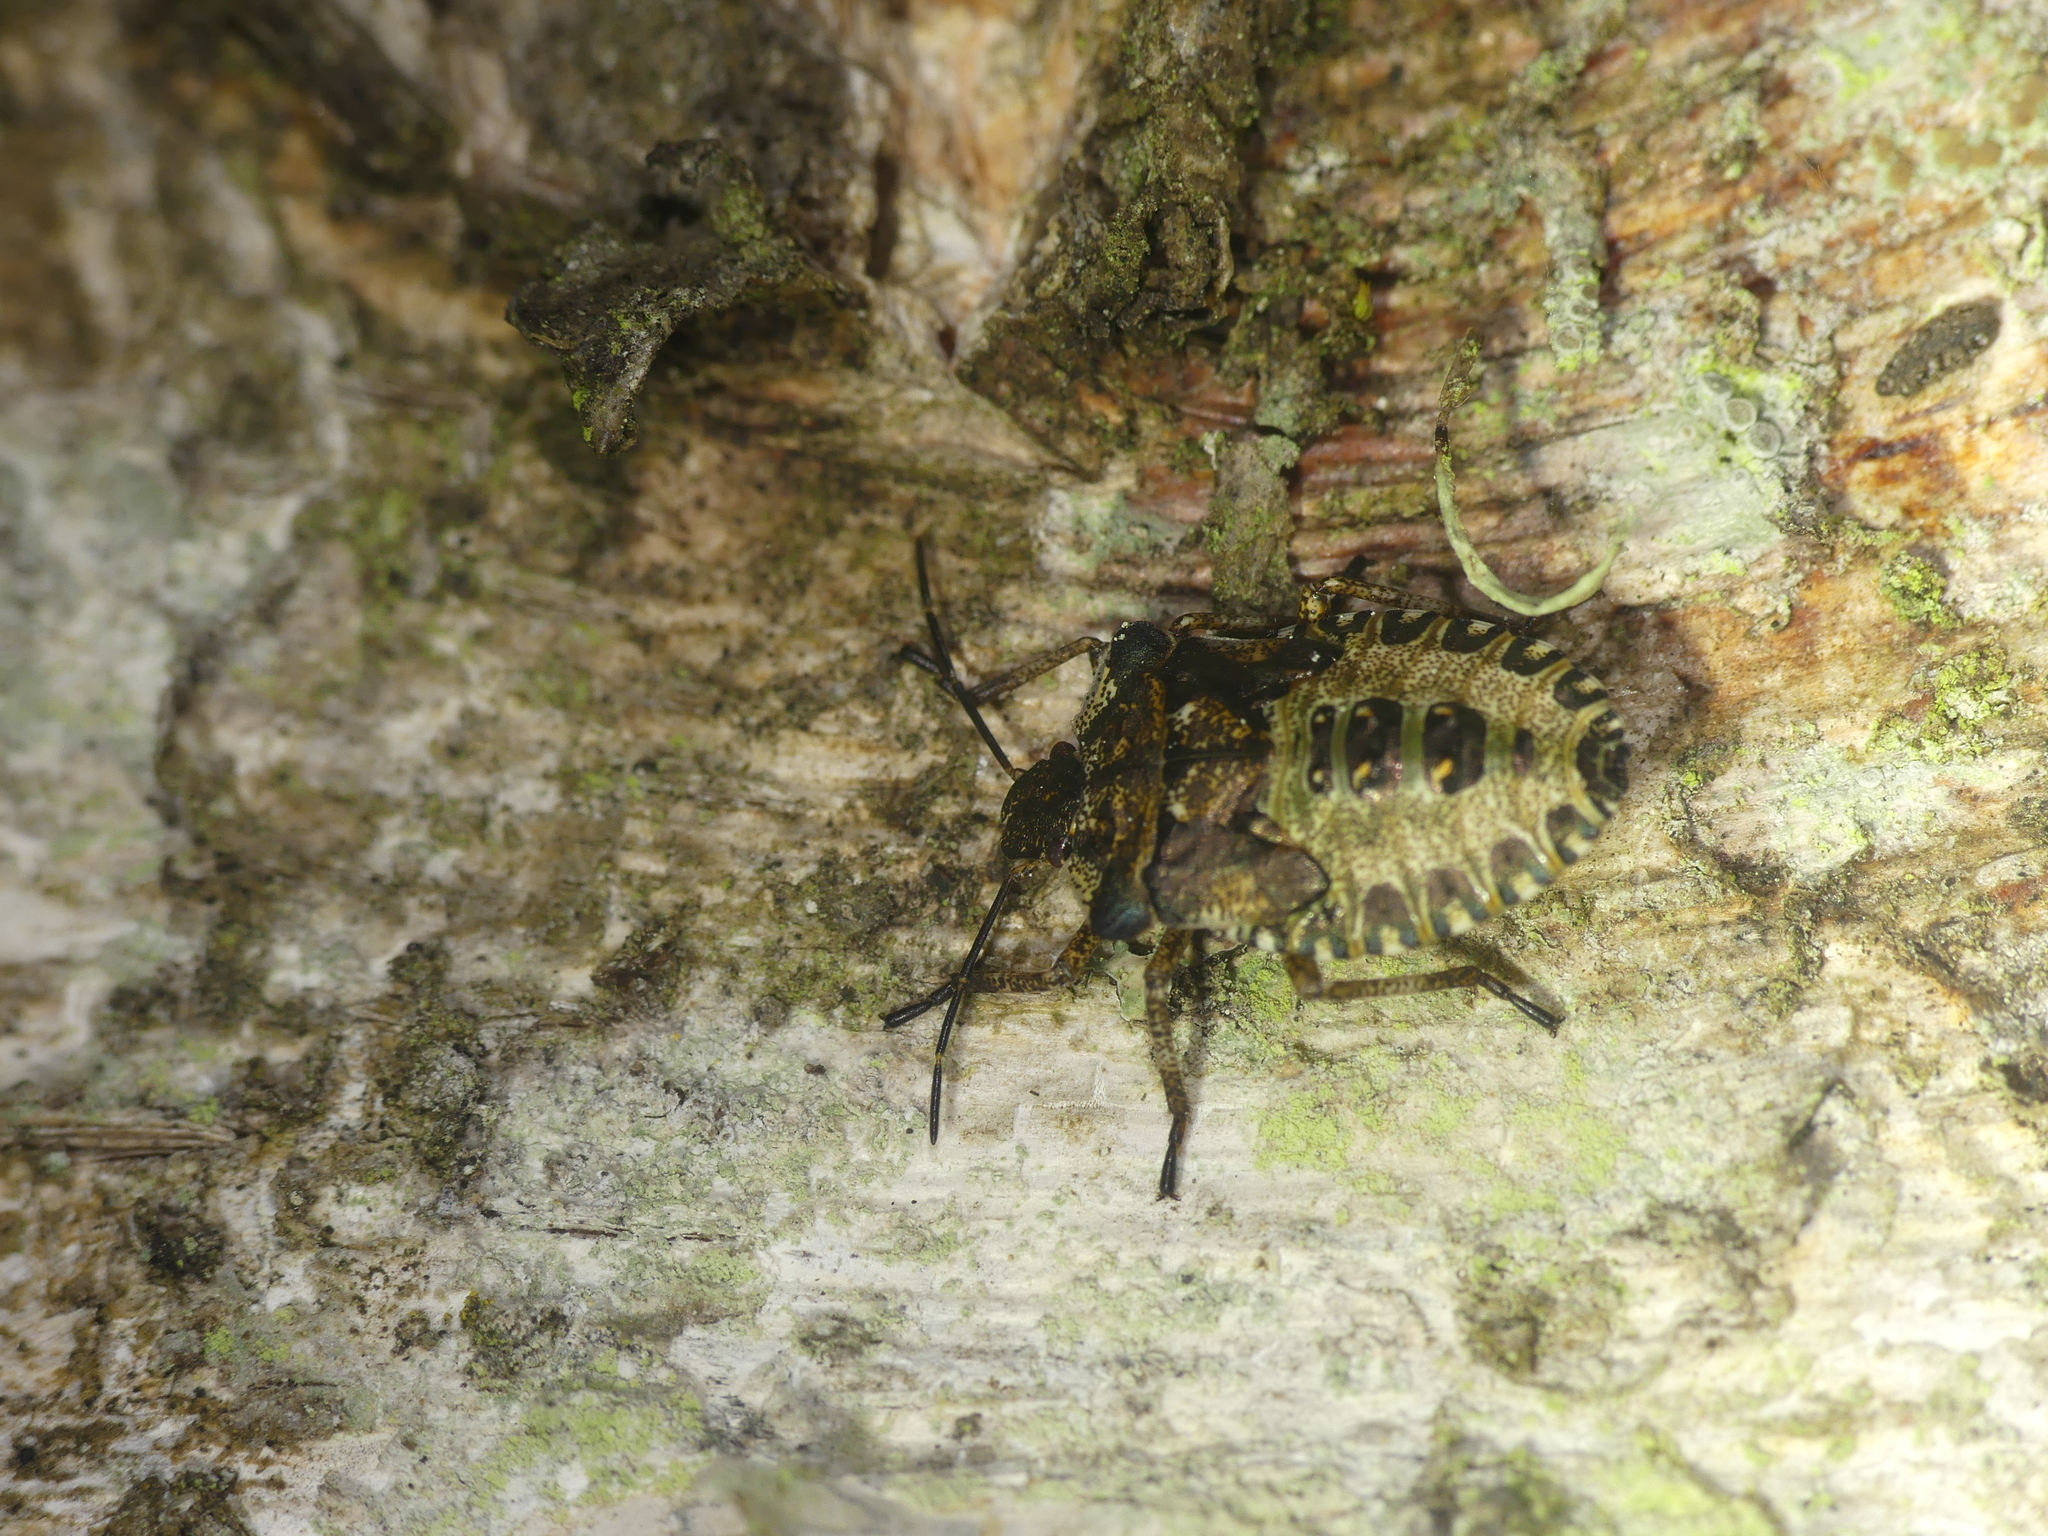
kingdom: Animalia
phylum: Arthropoda
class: Insecta
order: Hemiptera
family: Pentatomidae
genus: Pentatoma
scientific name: Pentatoma rufipes
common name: Forest bug
